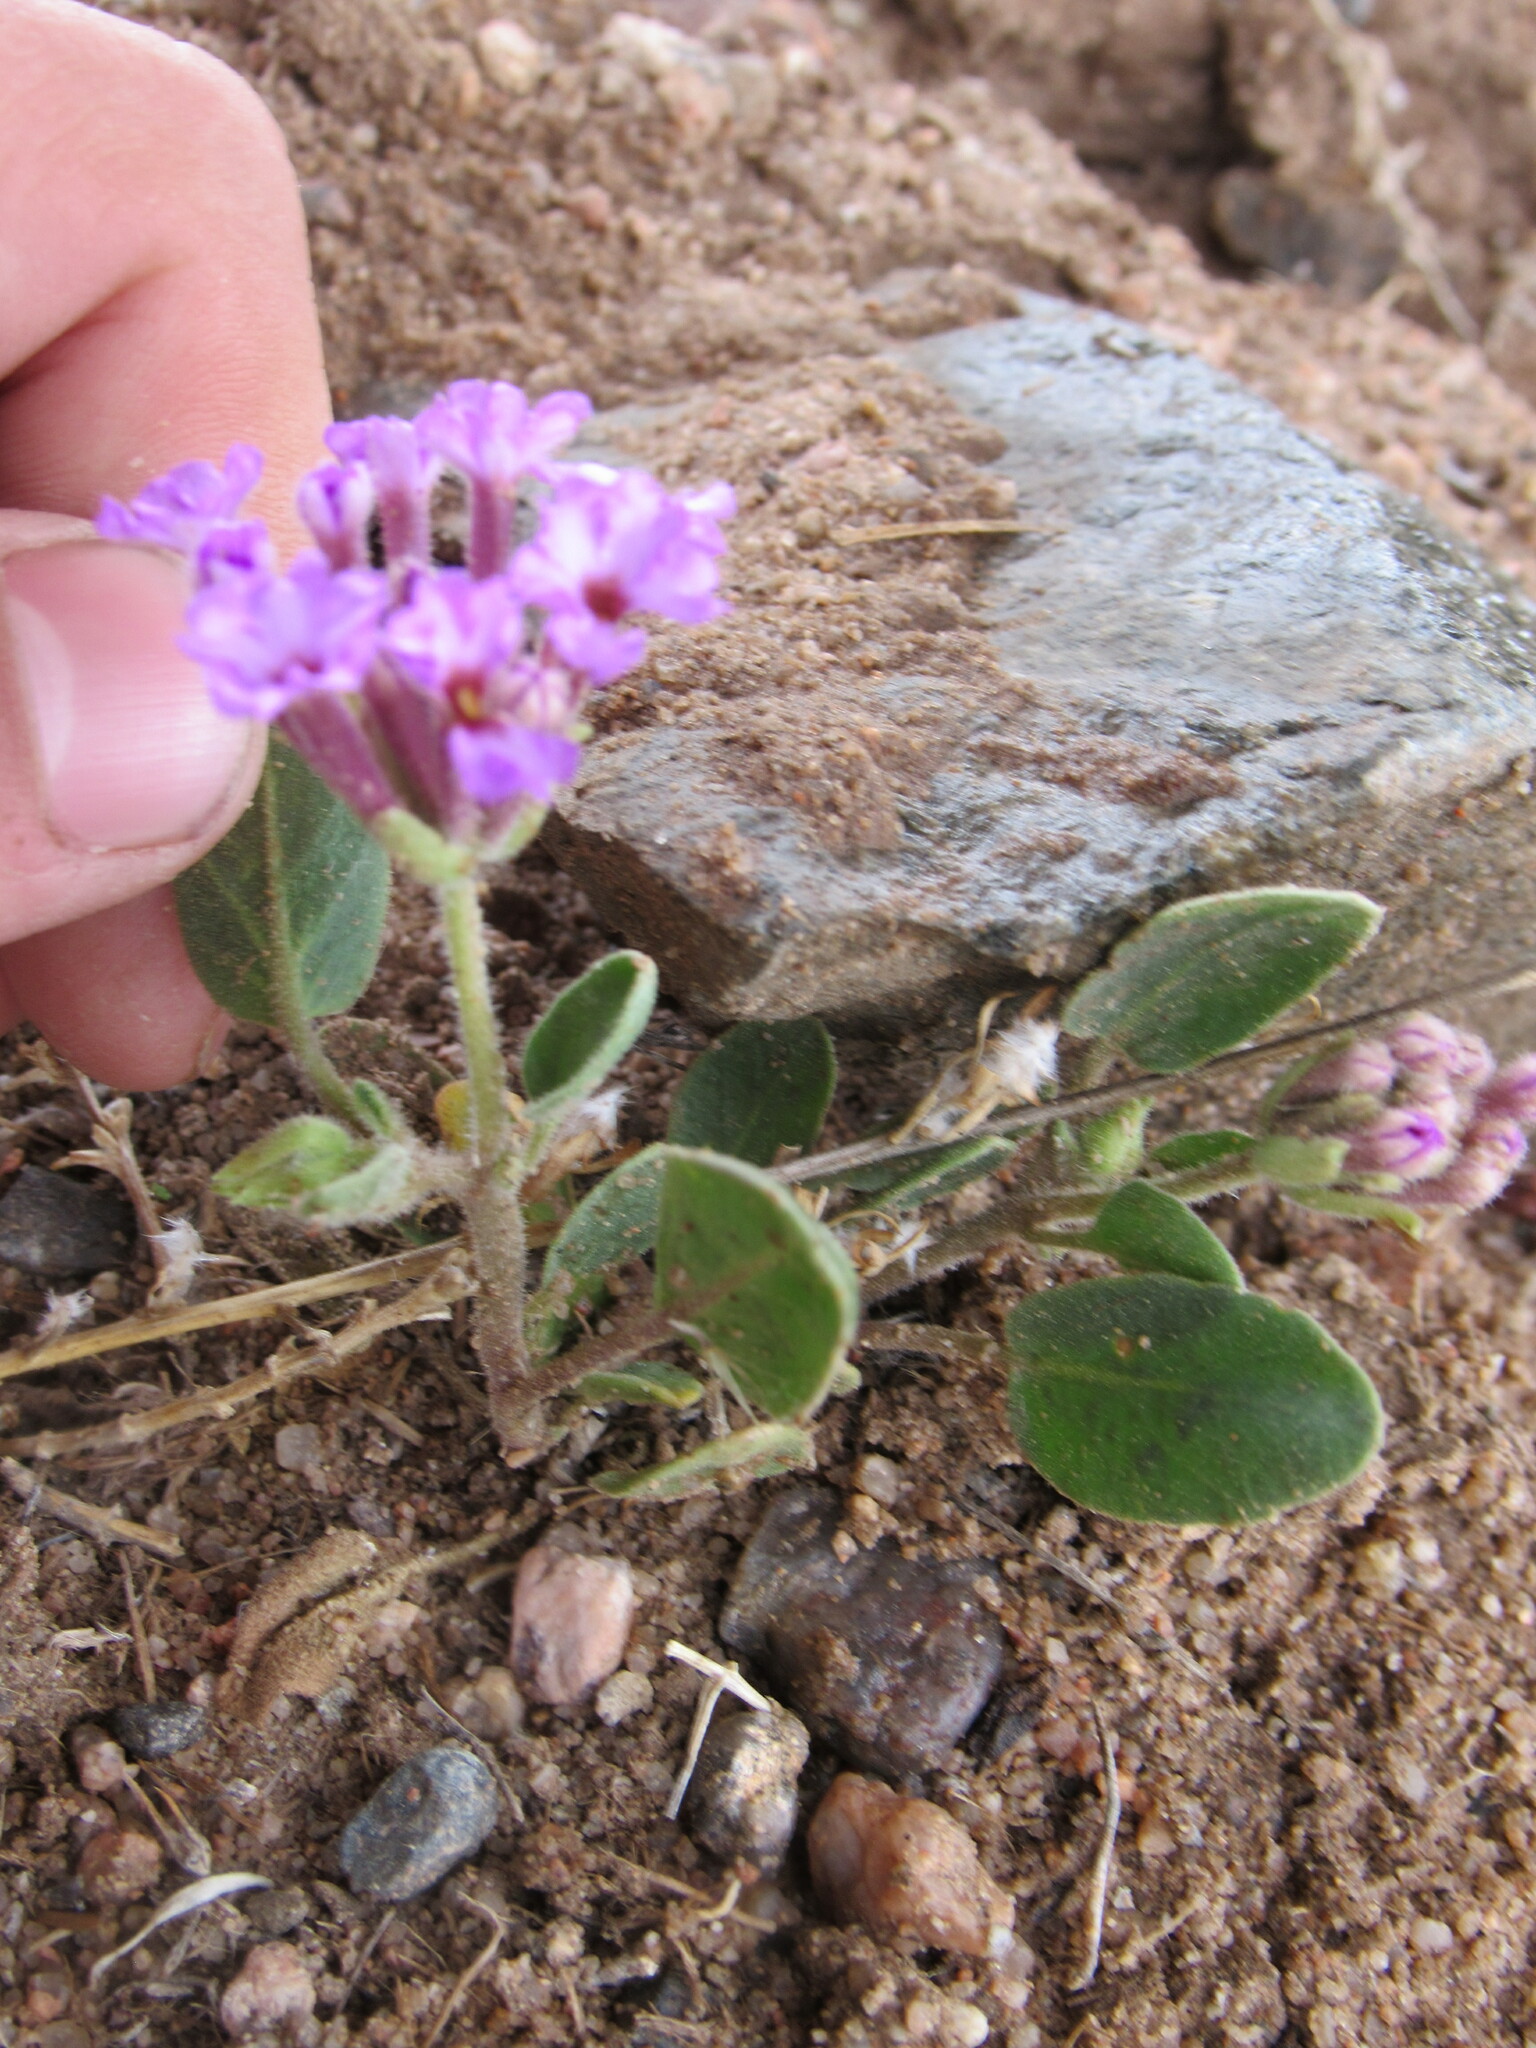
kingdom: Plantae
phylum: Tracheophyta
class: Magnoliopsida
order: Caryophyllales
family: Nyctaginaceae
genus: Abronia
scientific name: Abronia angustifolia
